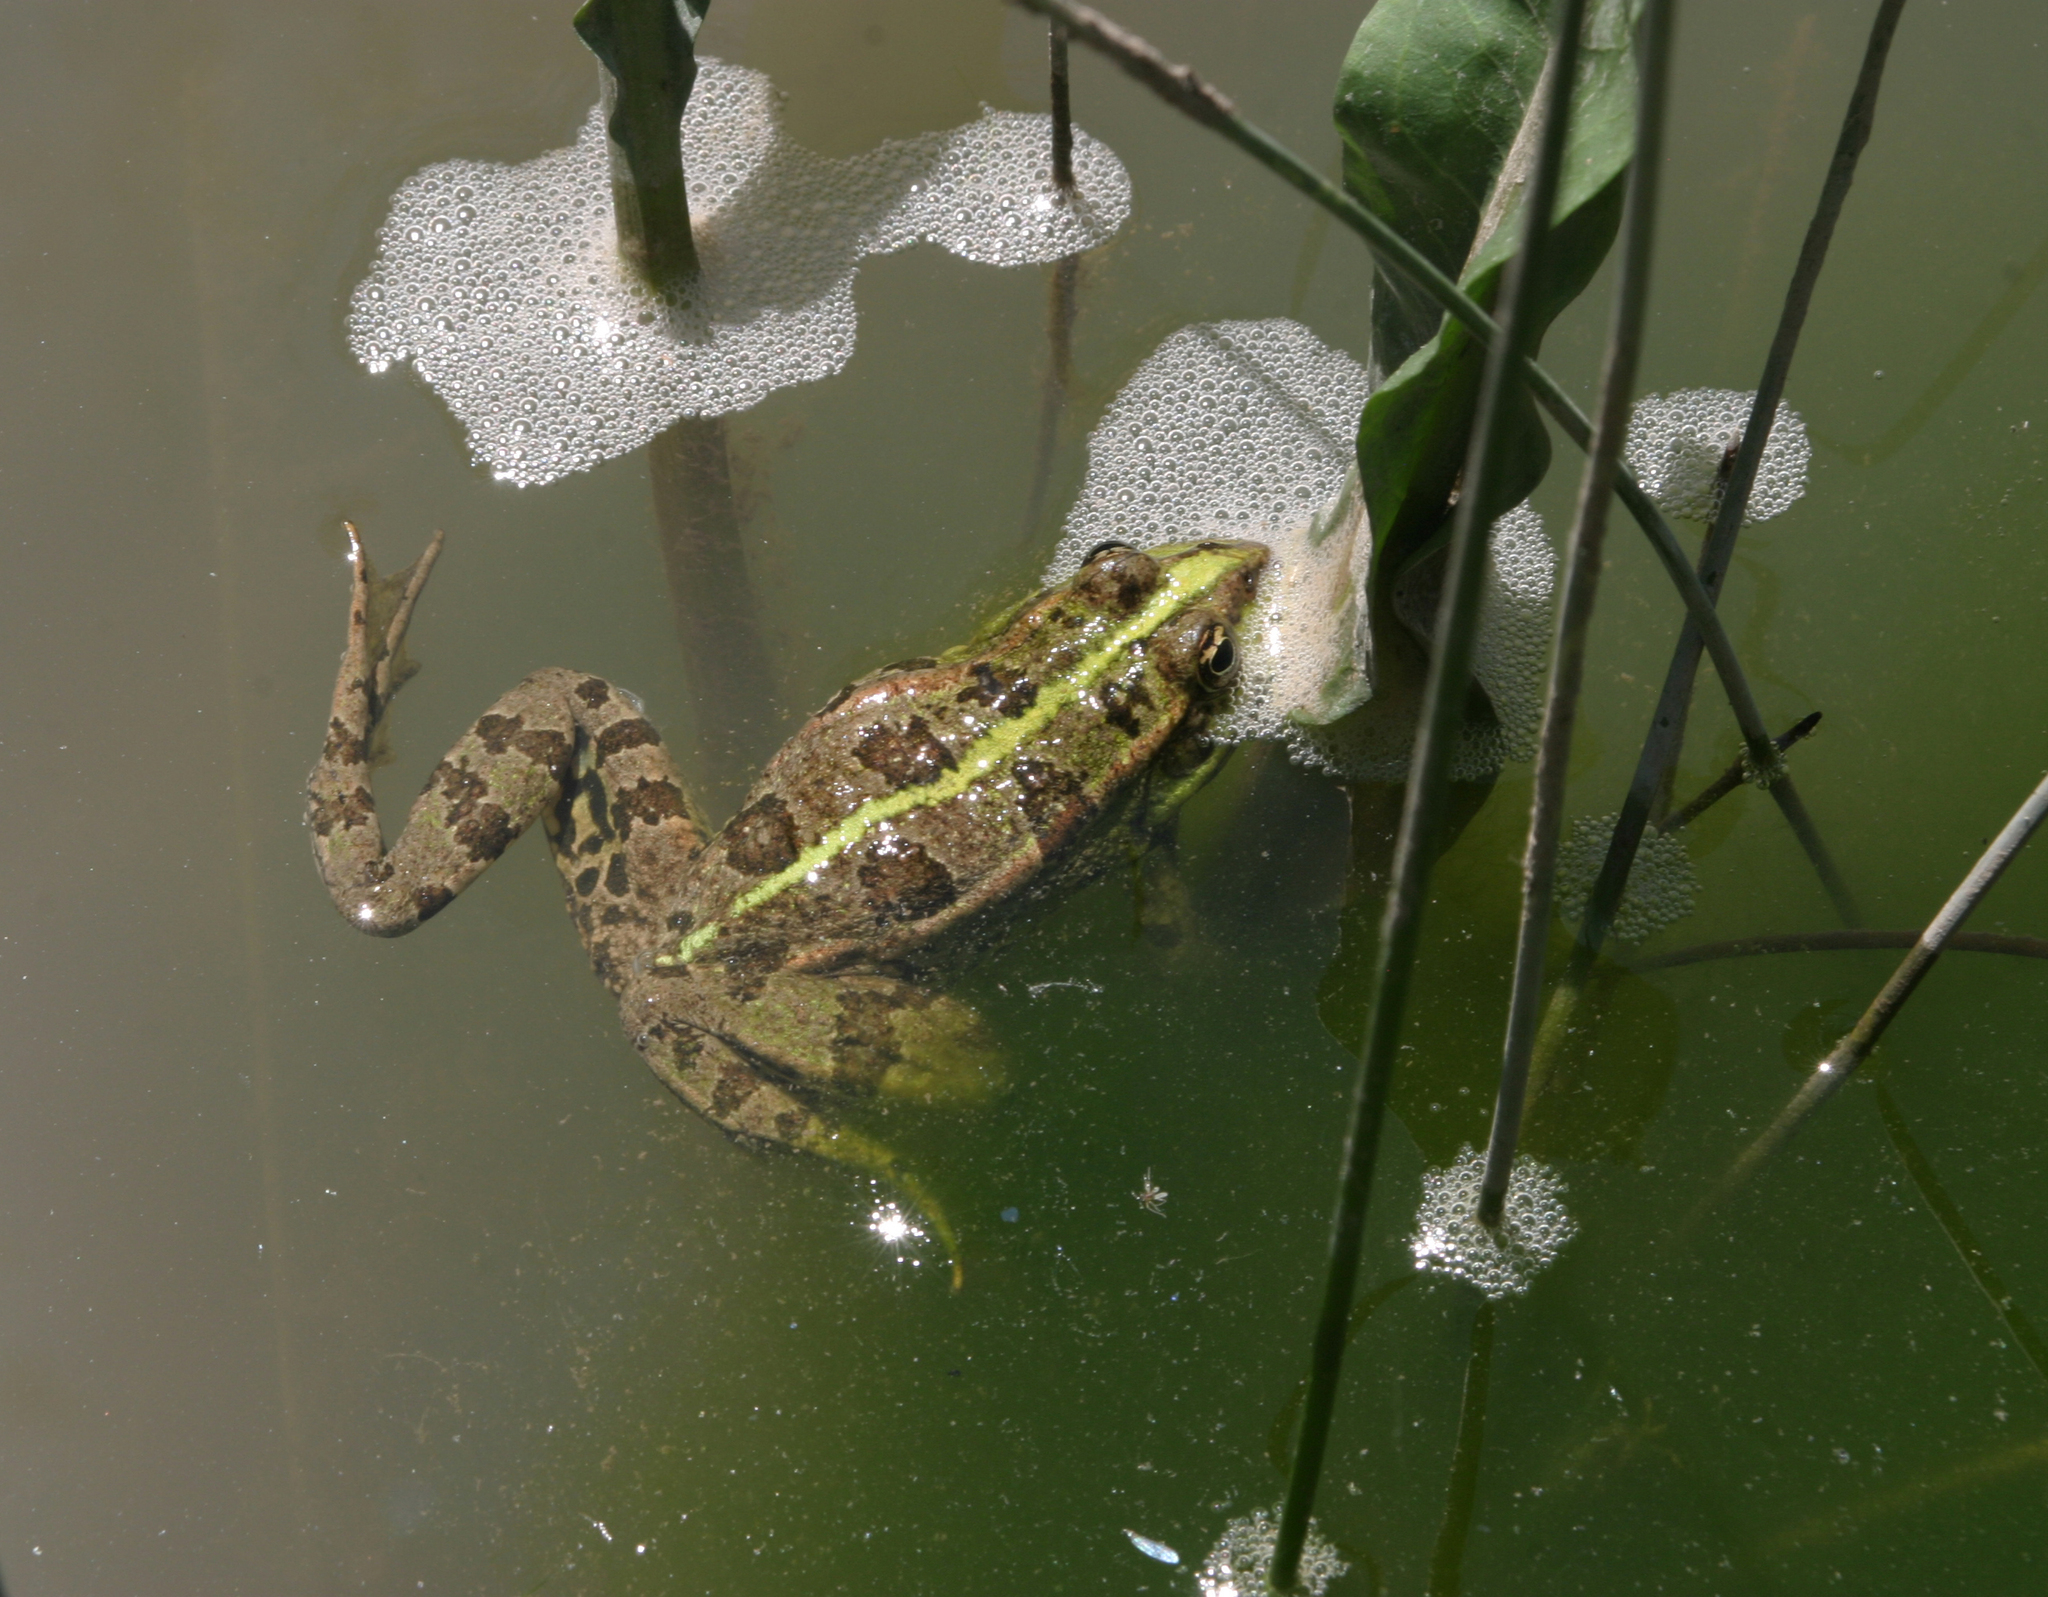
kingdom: Animalia
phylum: Chordata
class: Amphibia
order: Anura
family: Ranidae
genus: Pelophylax
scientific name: Pelophylax ridibundus
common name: Marsh frog
